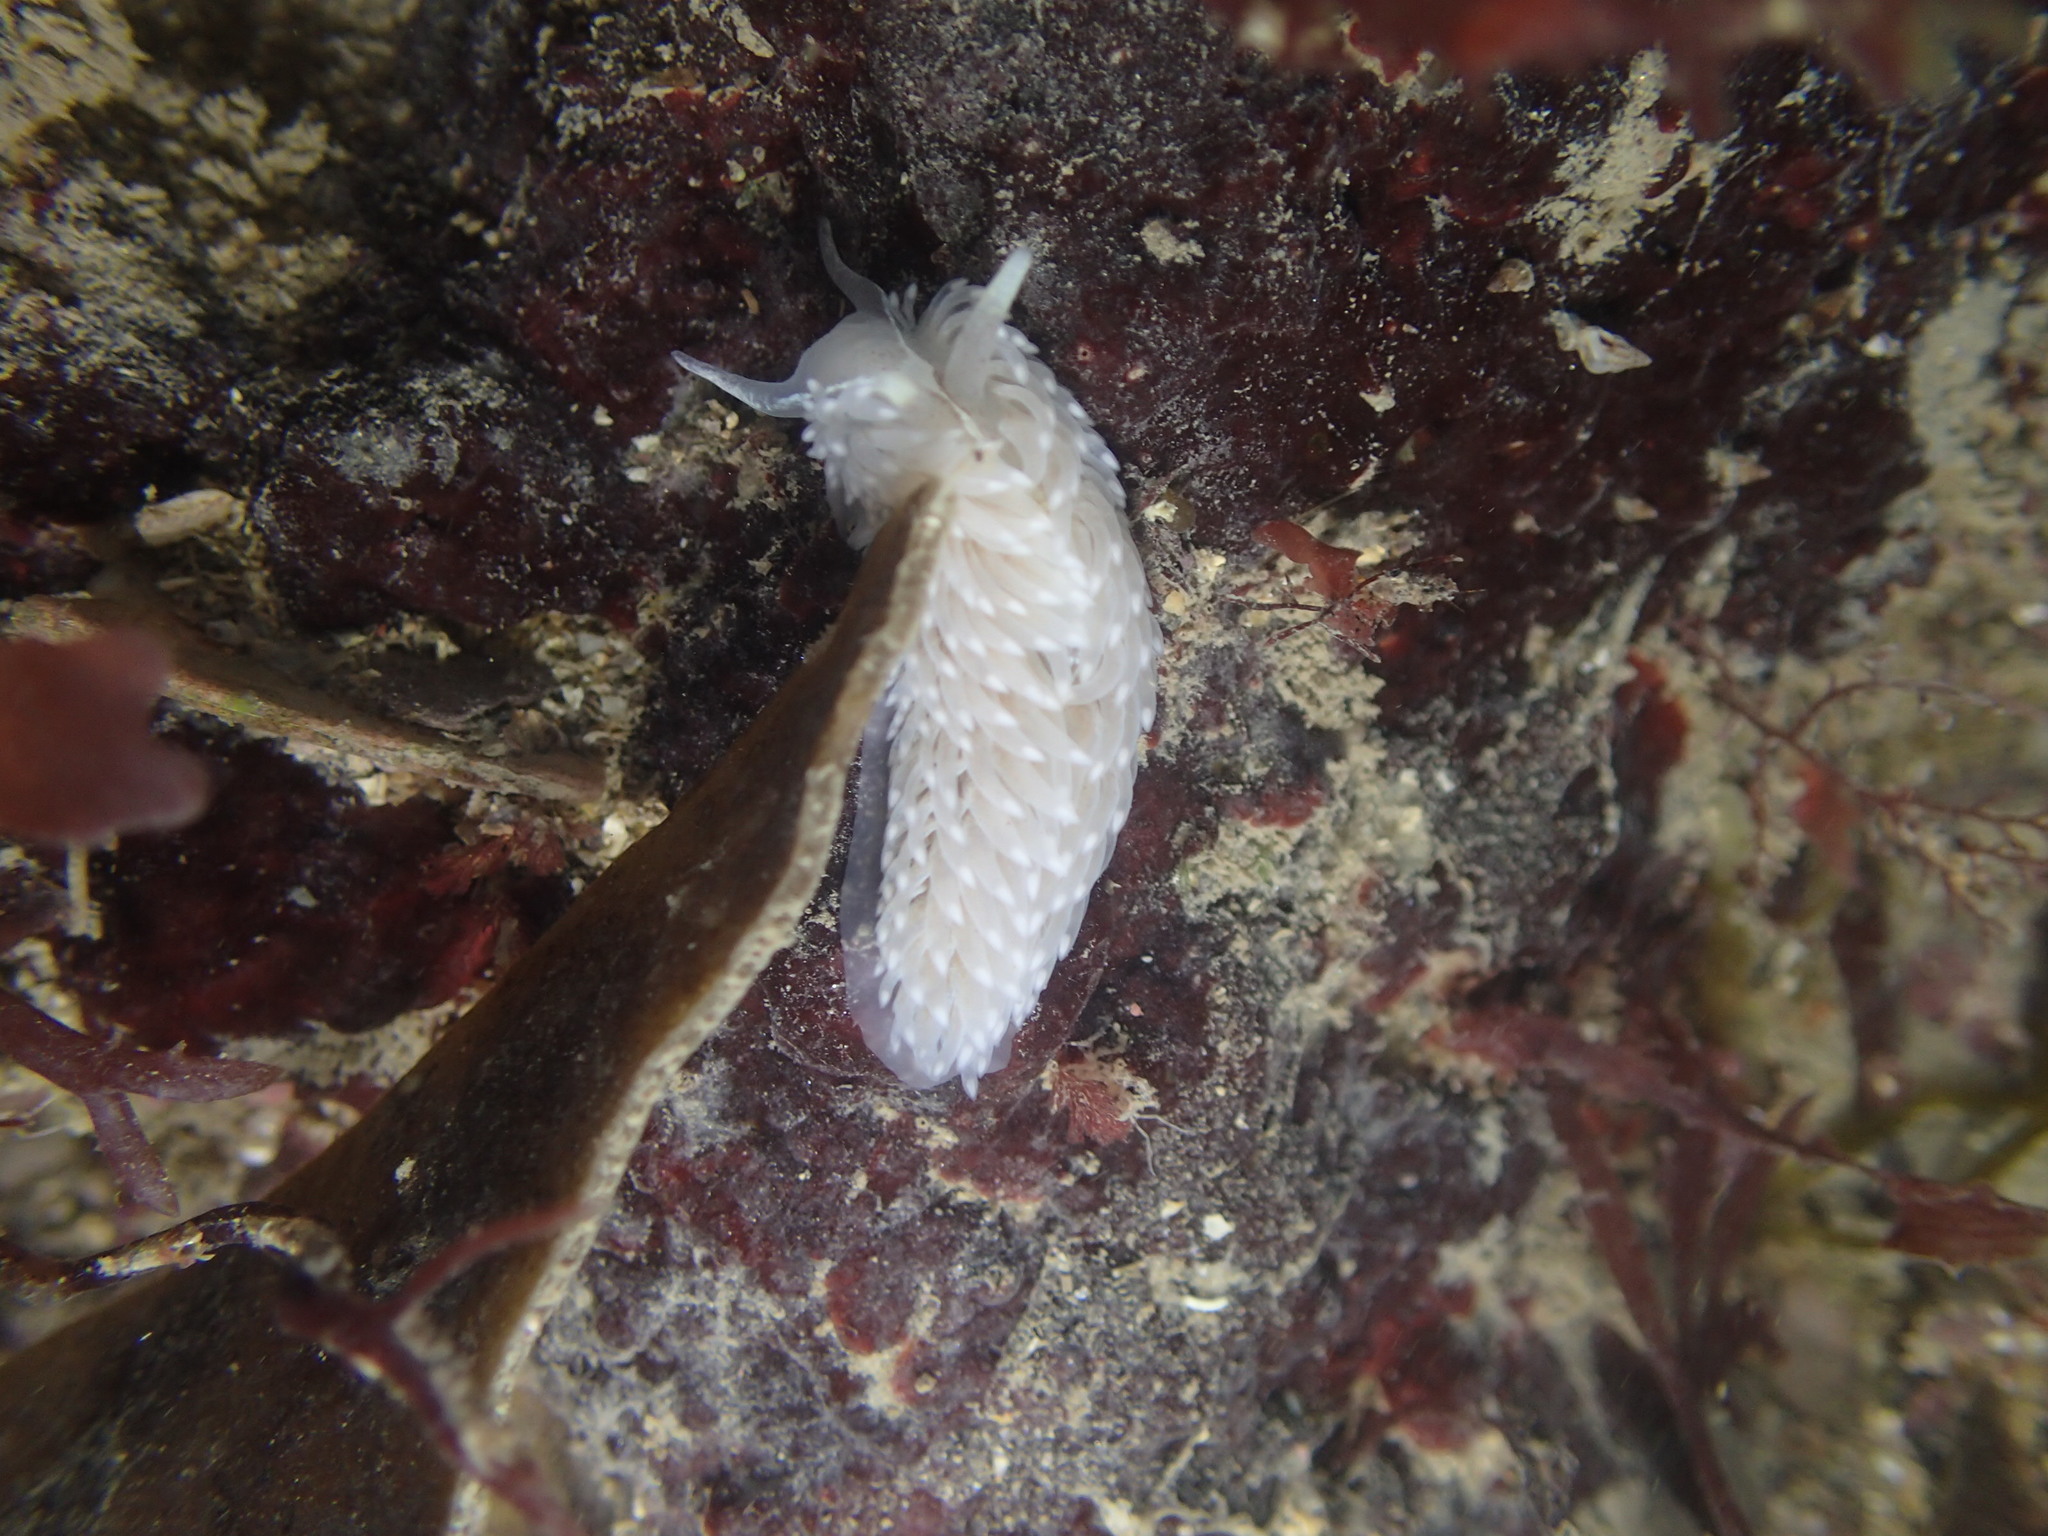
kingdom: Animalia
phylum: Mollusca
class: Gastropoda
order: Nudibranchia
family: Aeolidiidae
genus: Aeolidia
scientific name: Aeolidia filomenae
